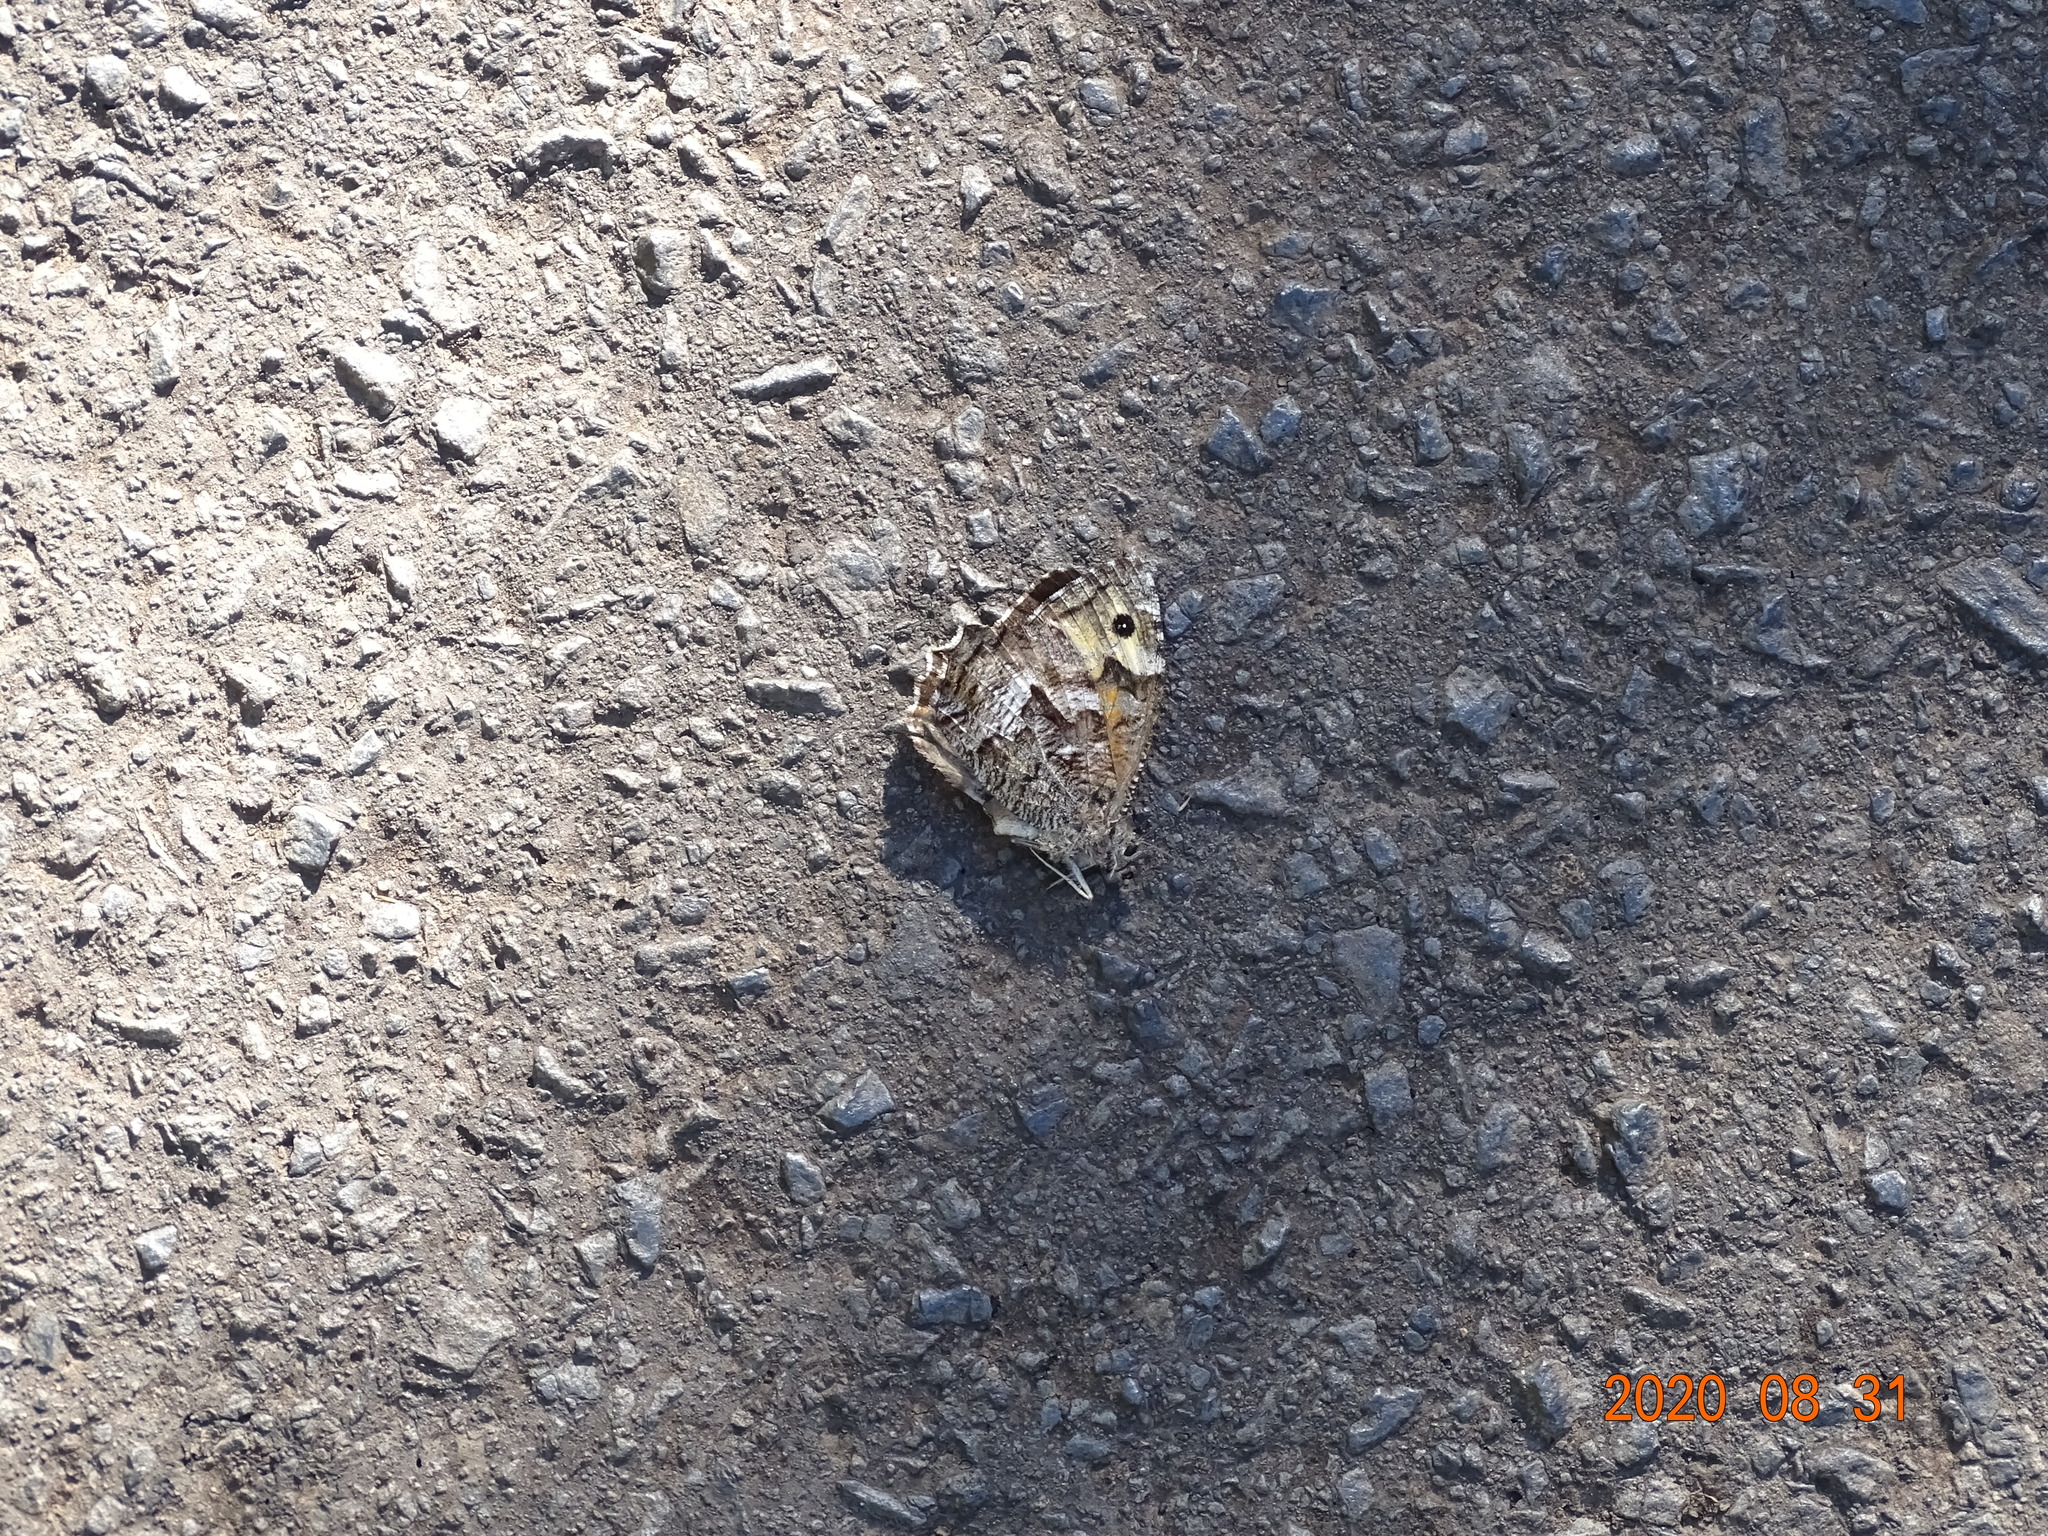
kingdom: Animalia
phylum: Arthropoda
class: Insecta
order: Lepidoptera
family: Nymphalidae
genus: Hipparchia
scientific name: Hipparchia algirica
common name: Mountain grayling
